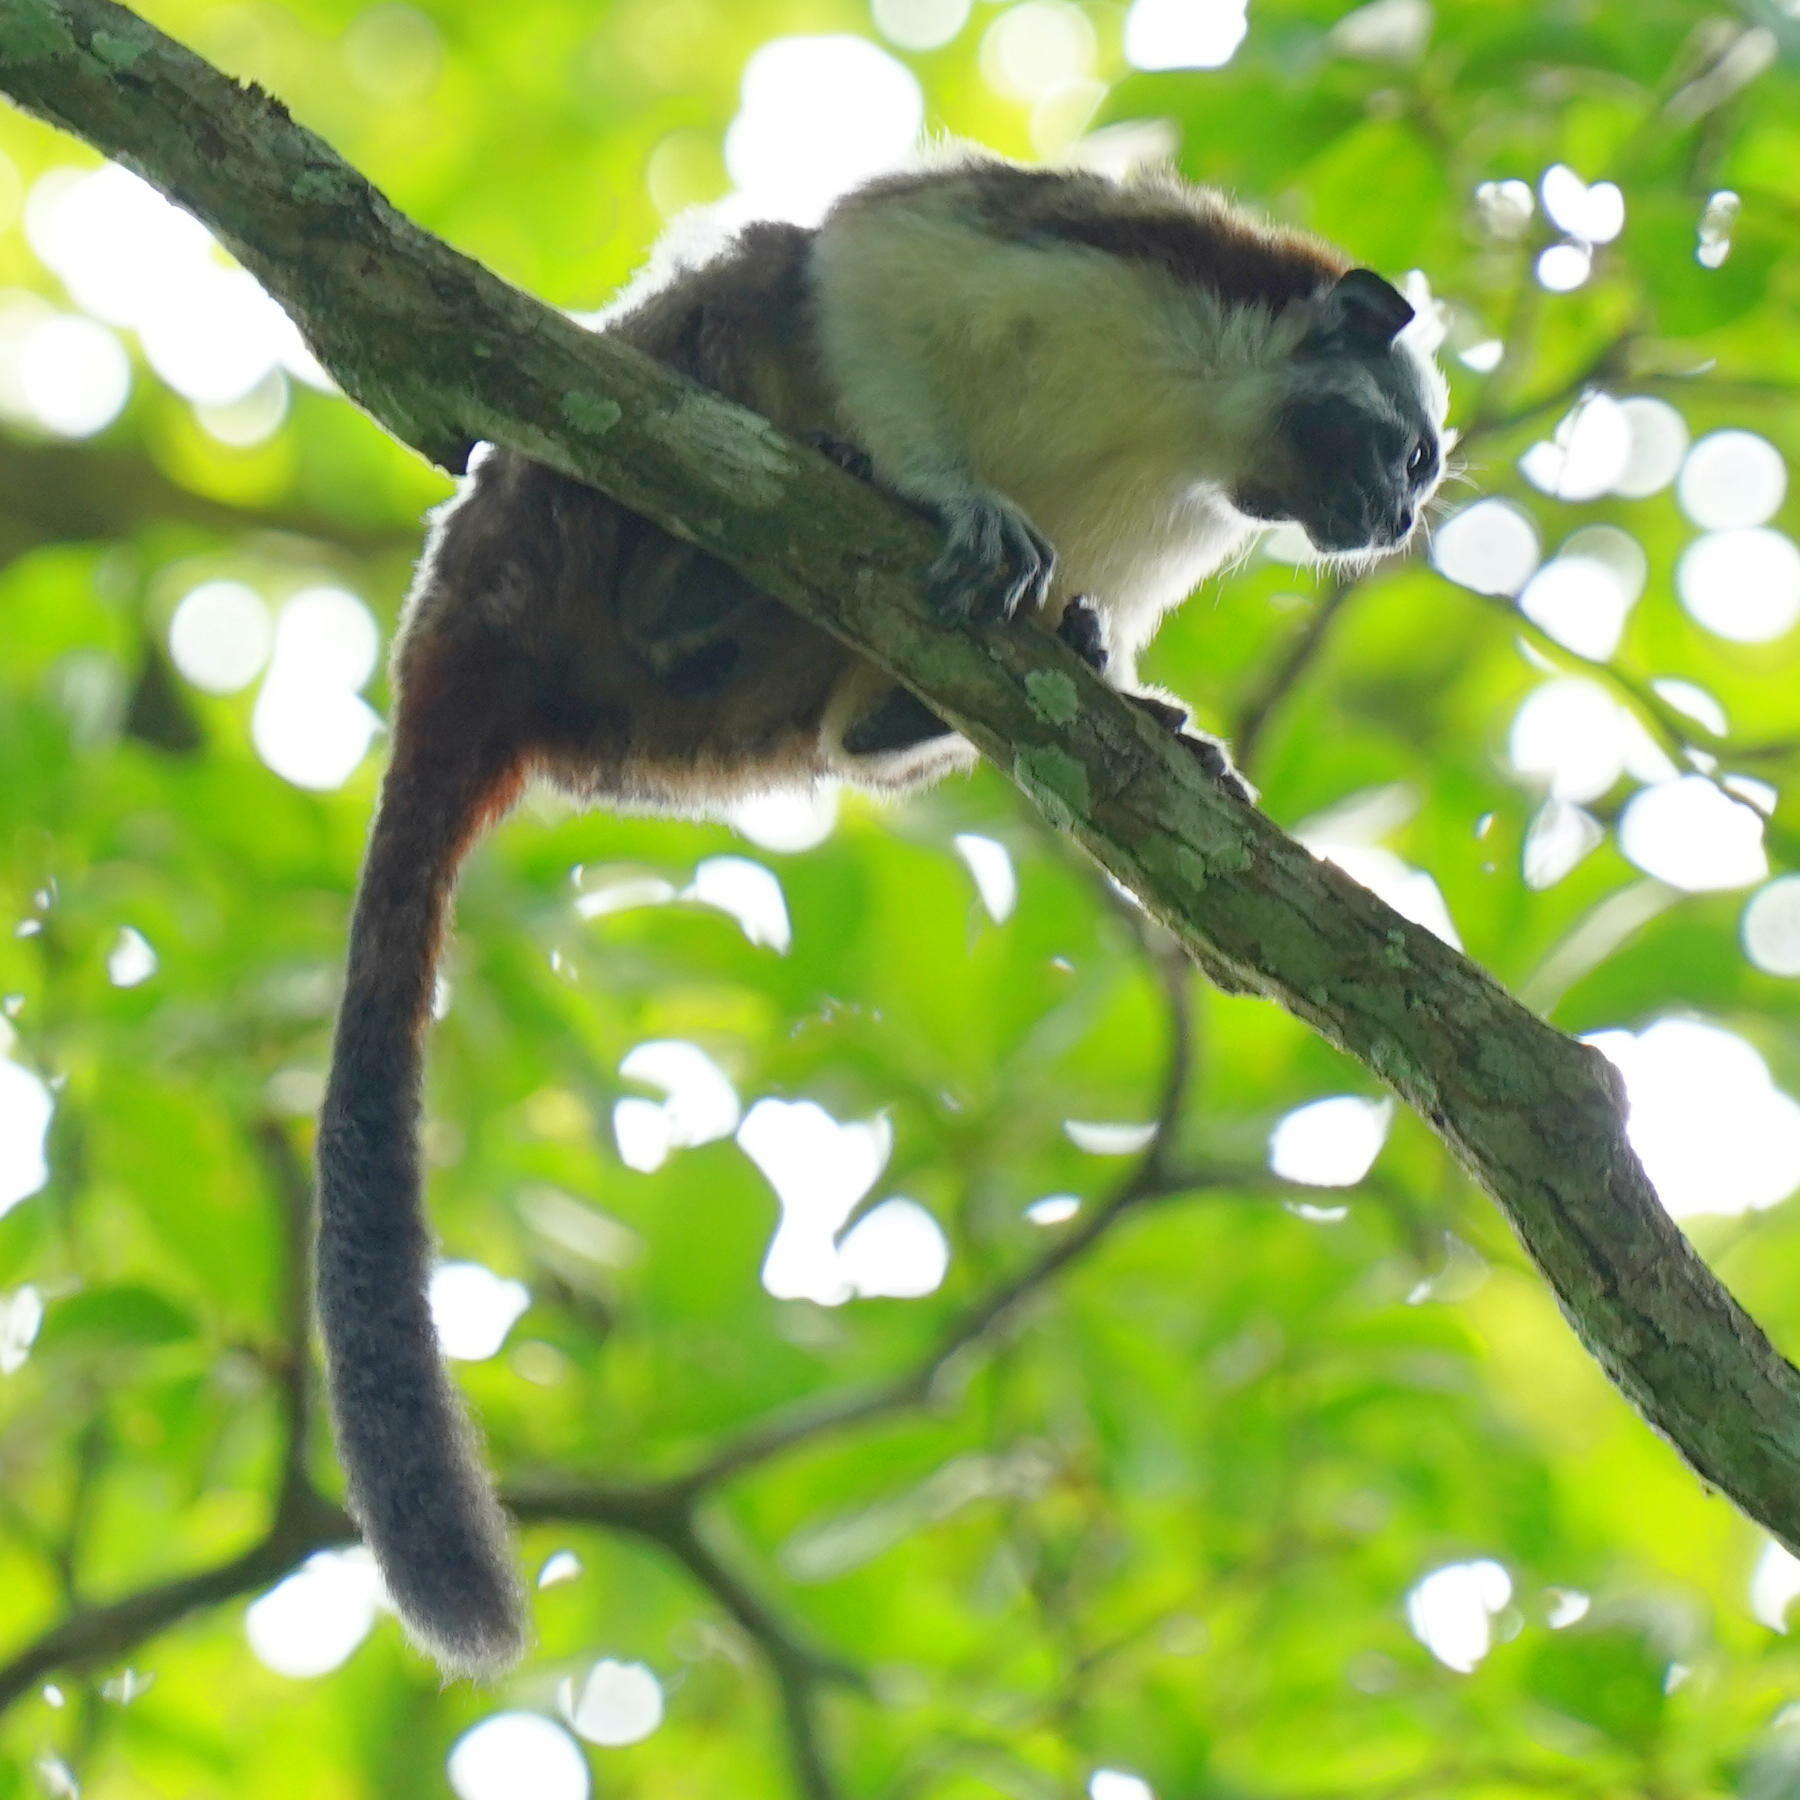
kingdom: Animalia
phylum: Chordata
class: Mammalia
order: Primates
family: Callitrichidae
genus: Saguinus
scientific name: Saguinus geoffroyi
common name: Geoffroy s tamarin
